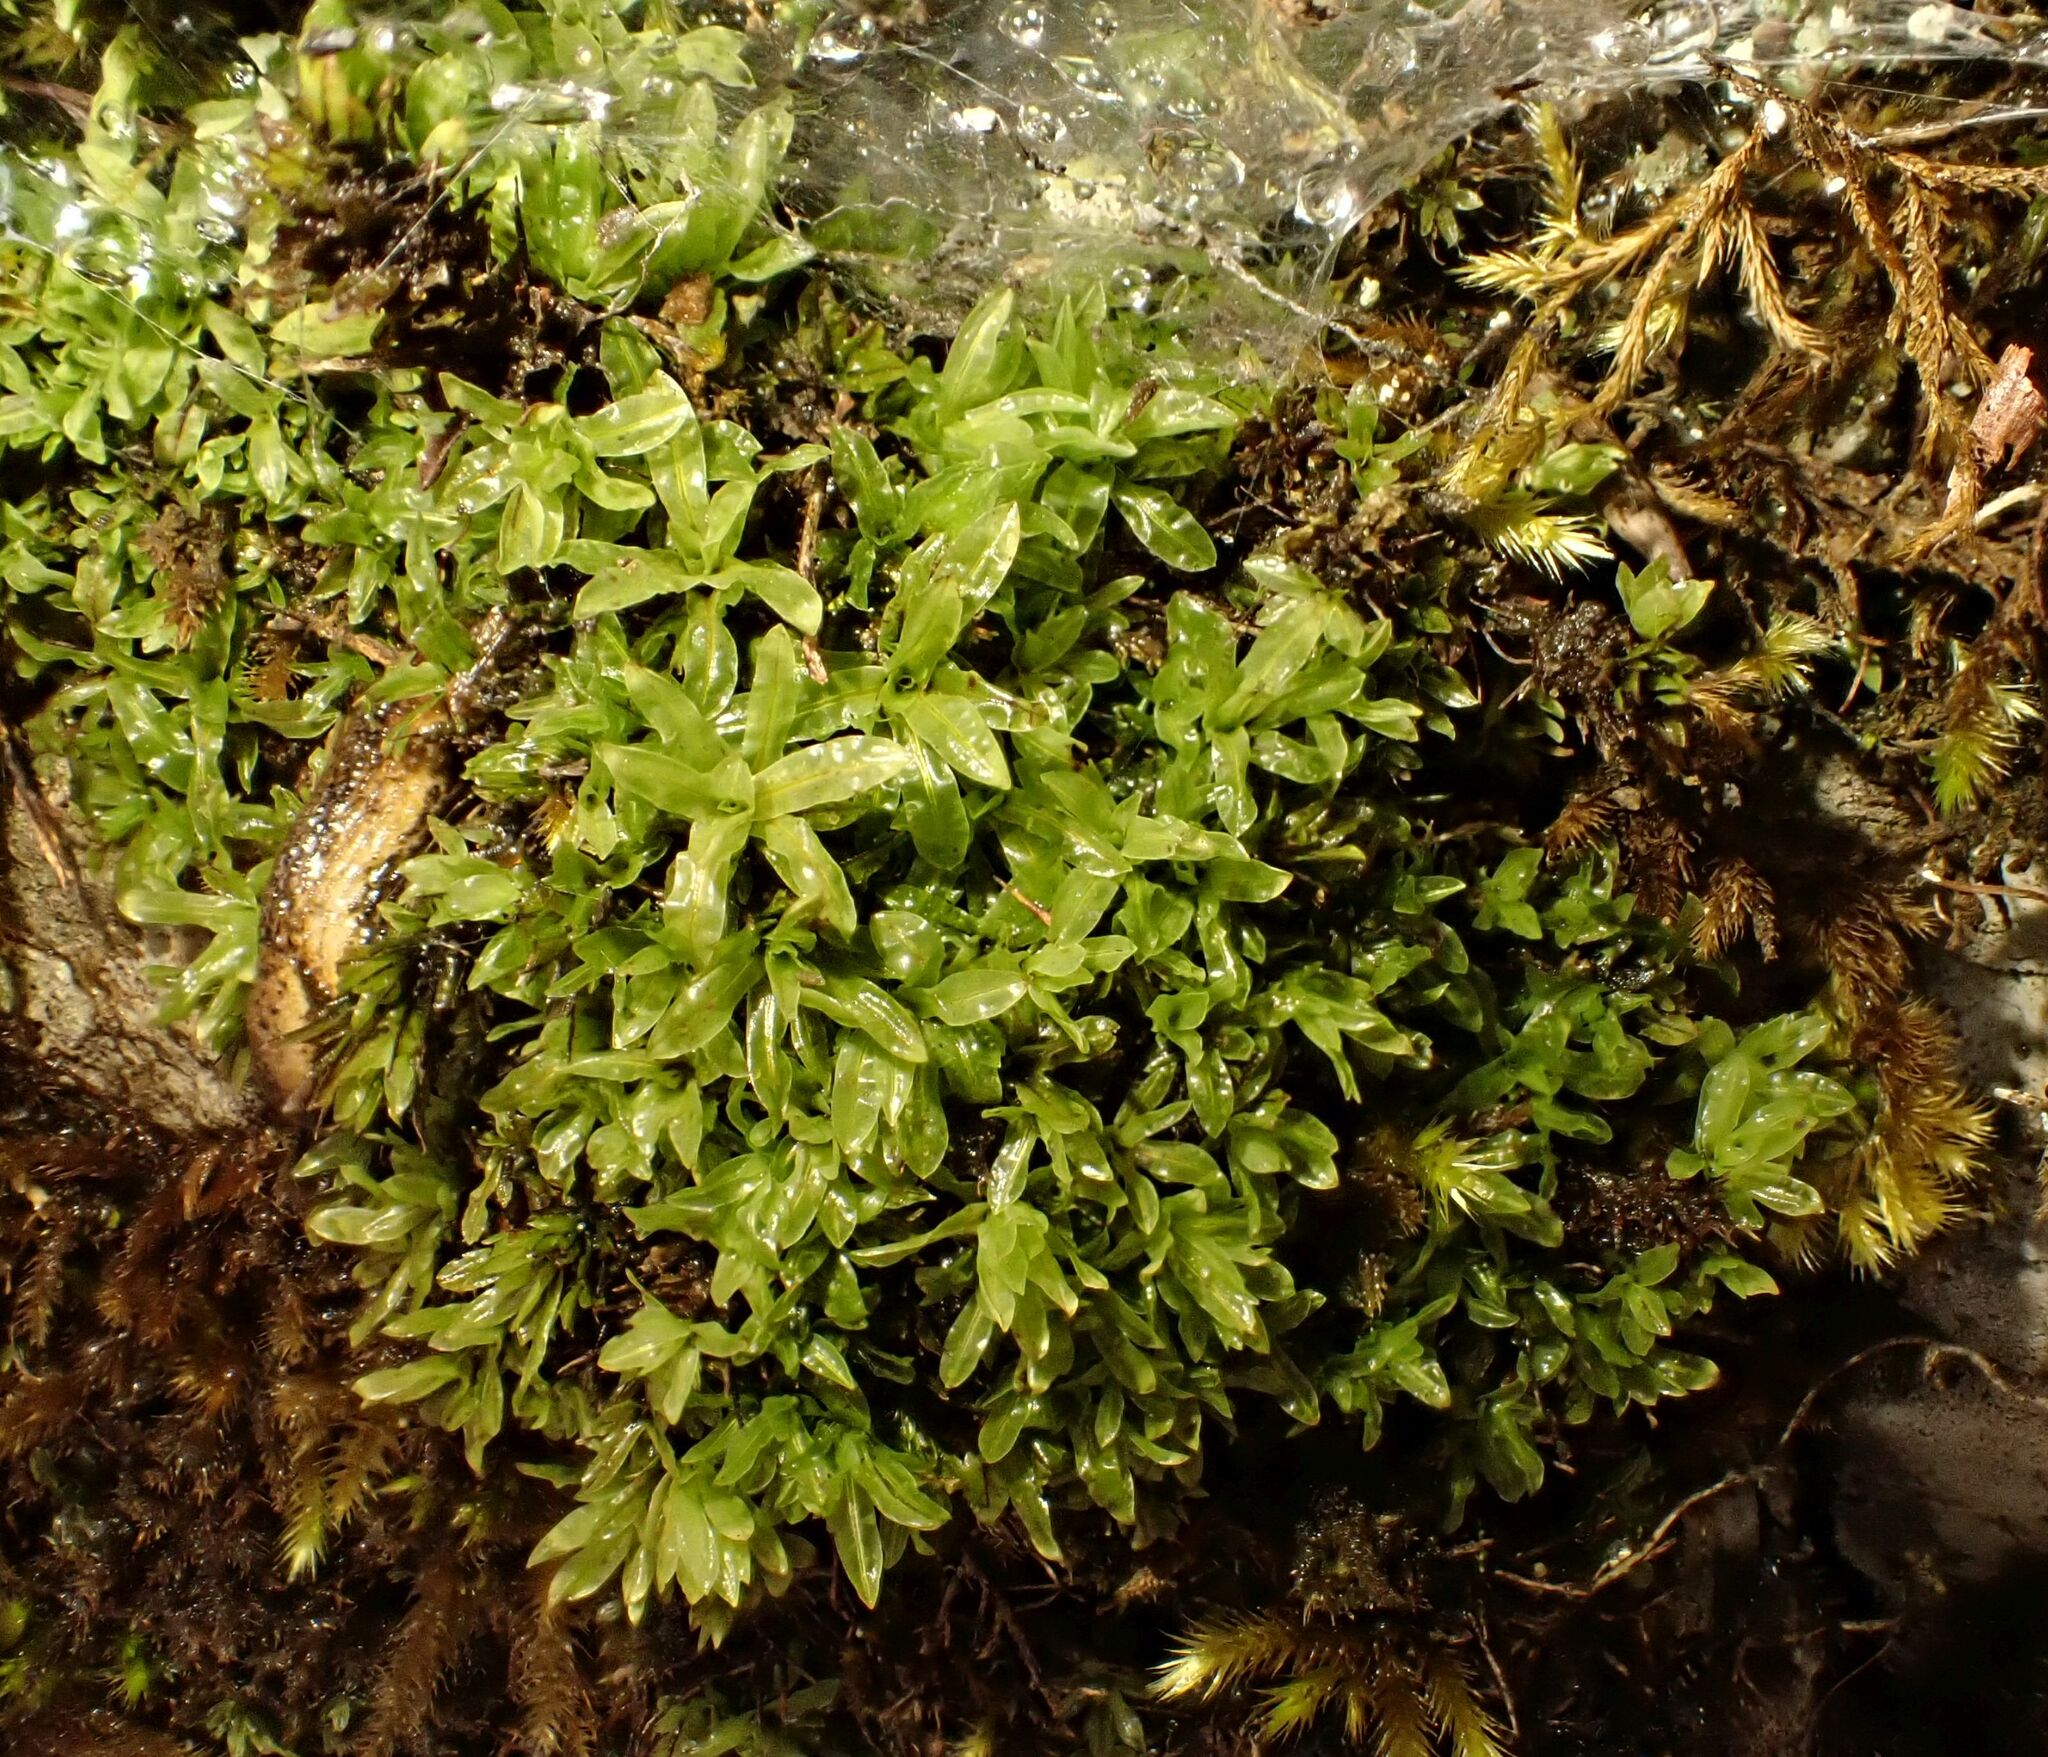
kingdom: Plantae
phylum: Bryophyta
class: Bryopsida
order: Encalyptales
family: Encalyptaceae
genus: Encalypta
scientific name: Encalypta streptocarpa
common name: Spiral extinguisher-moss
